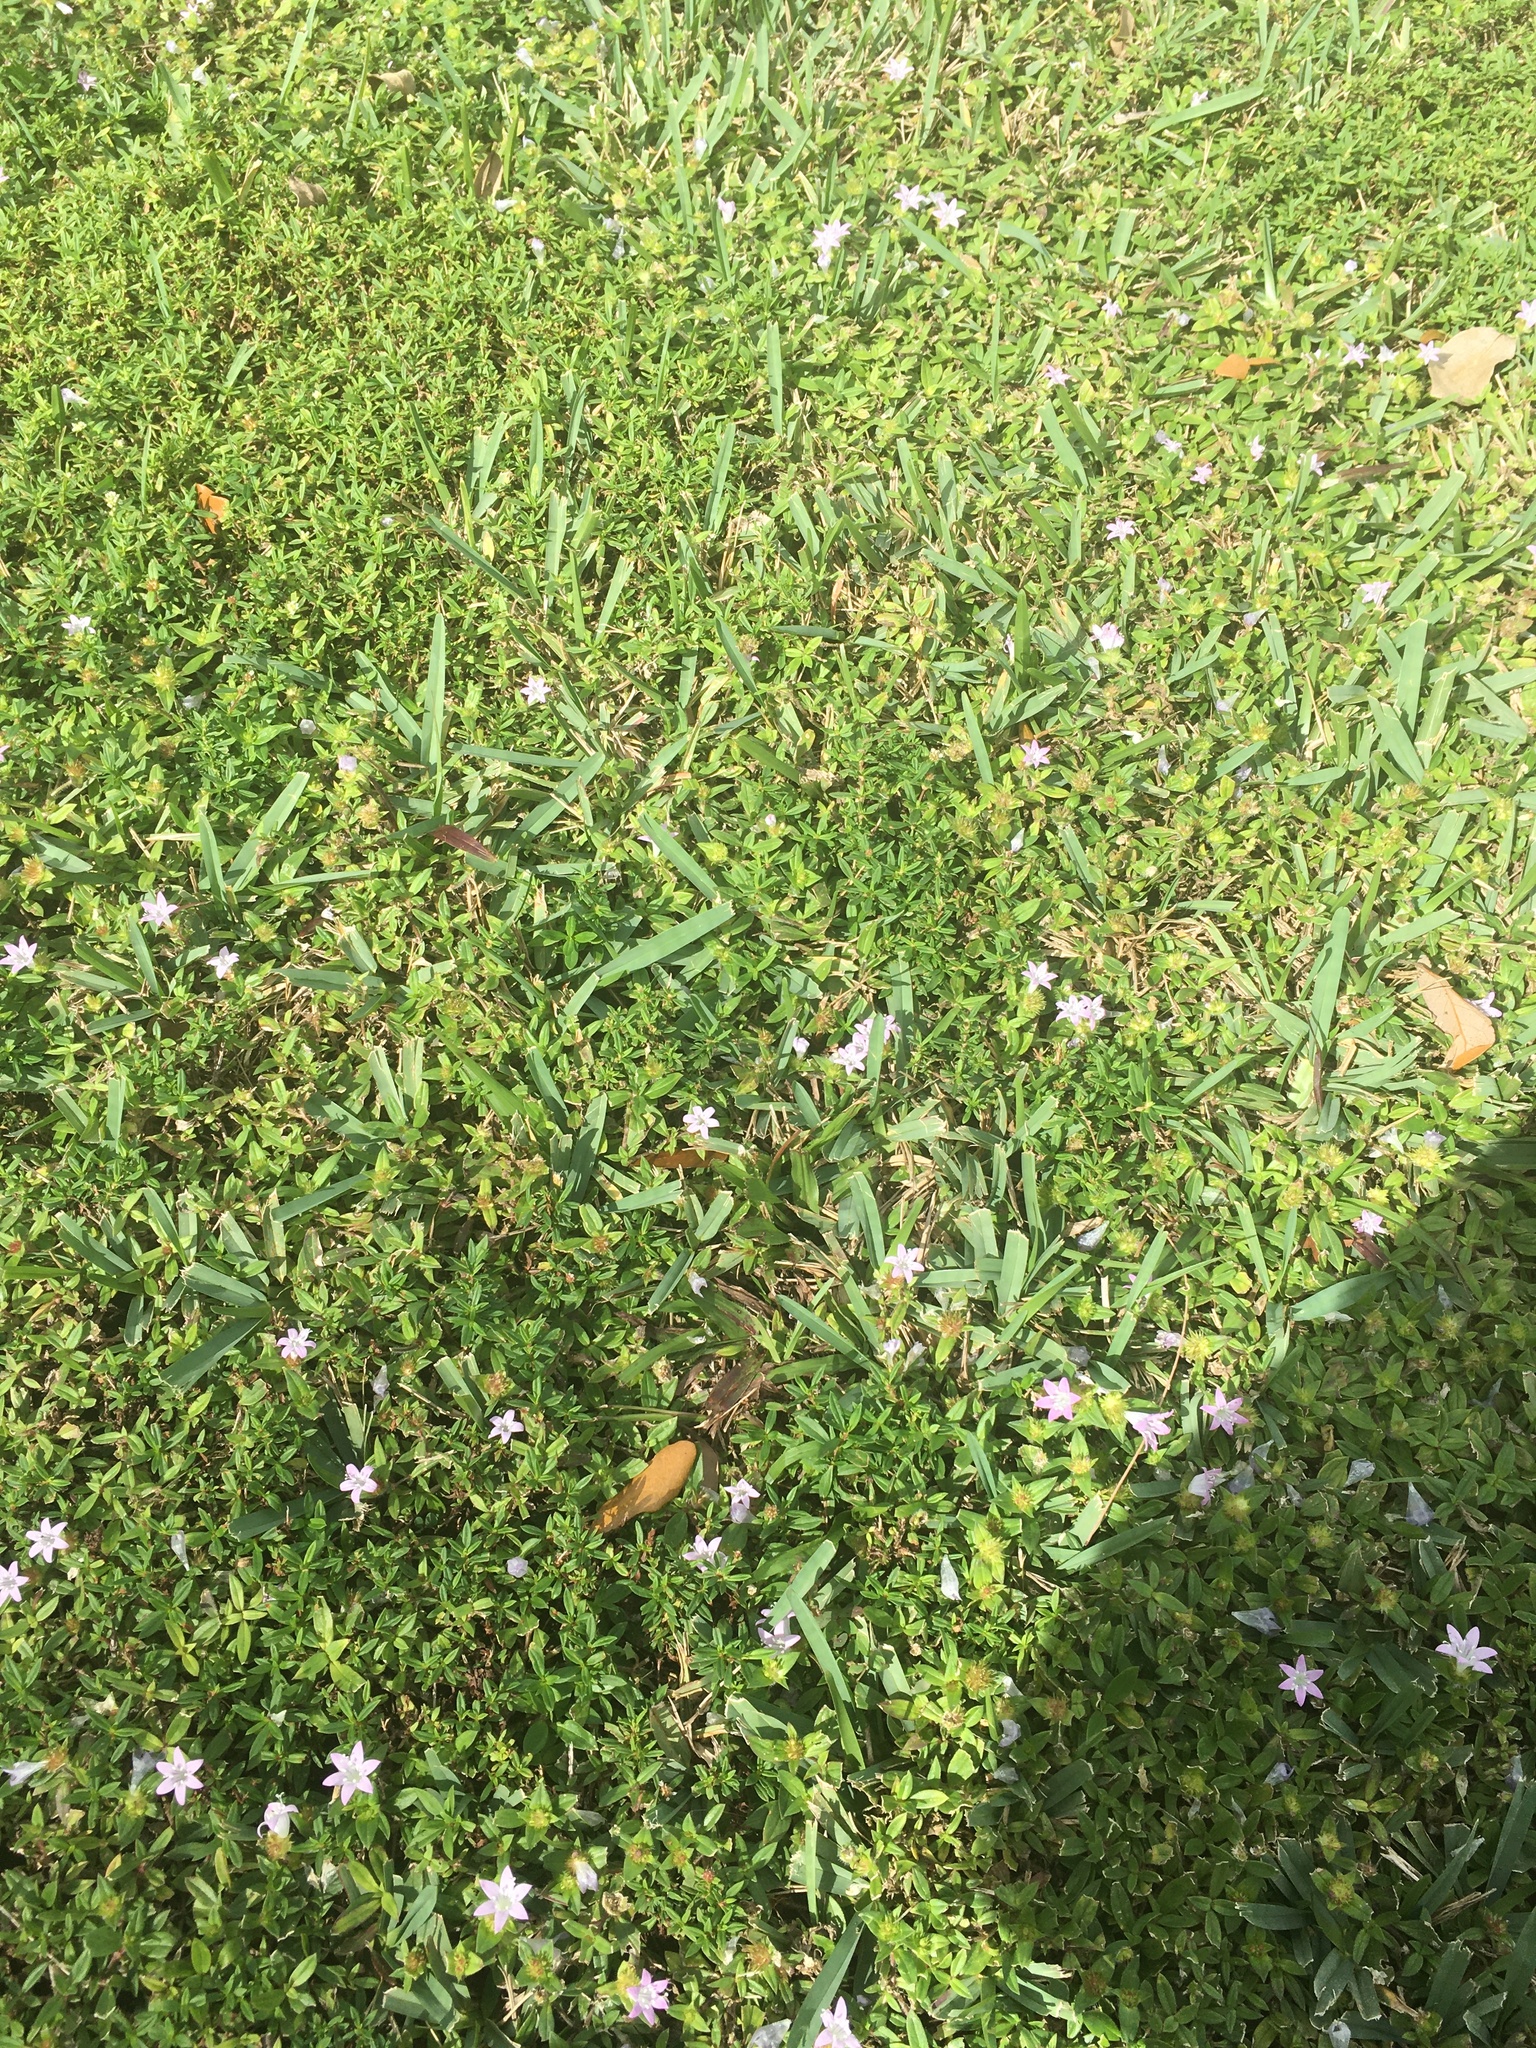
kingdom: Plantae
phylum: Tracheophyta
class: Magnoliopsida
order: Gentianales
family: Rubiaceae
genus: Richardia
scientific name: Richardia grandiflora
